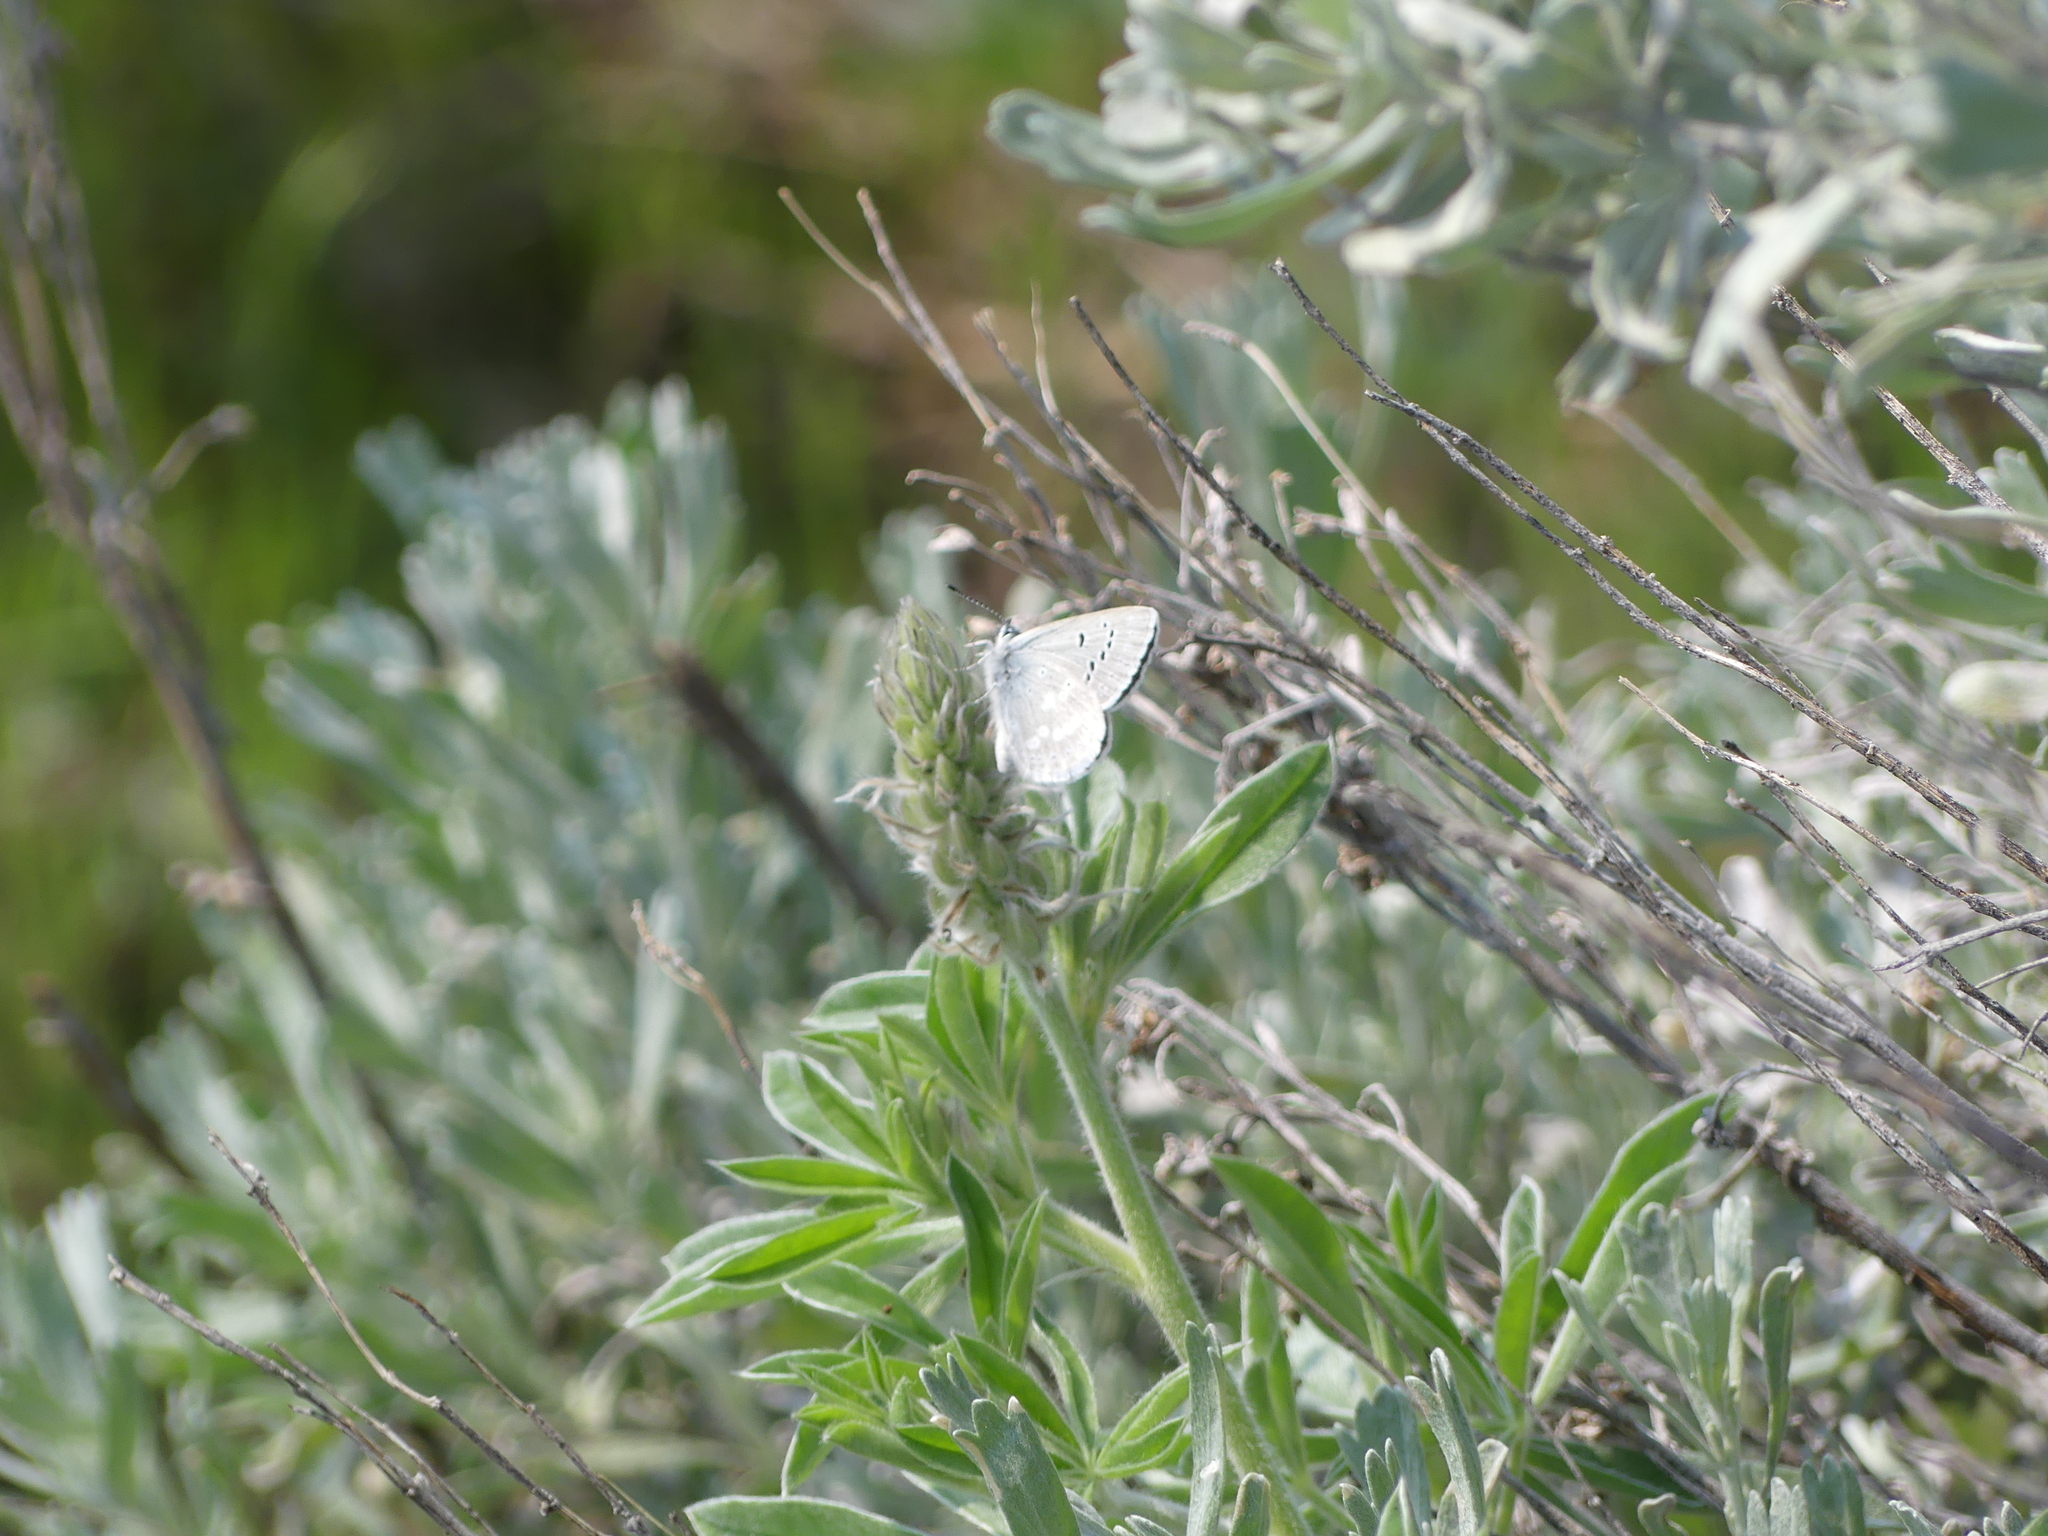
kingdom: Animalia
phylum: Arthropoda
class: Insecta
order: Lepidoptera
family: Lycaenidae
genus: Icaricia
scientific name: Icaricia icarioides
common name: Boisduval's blue
